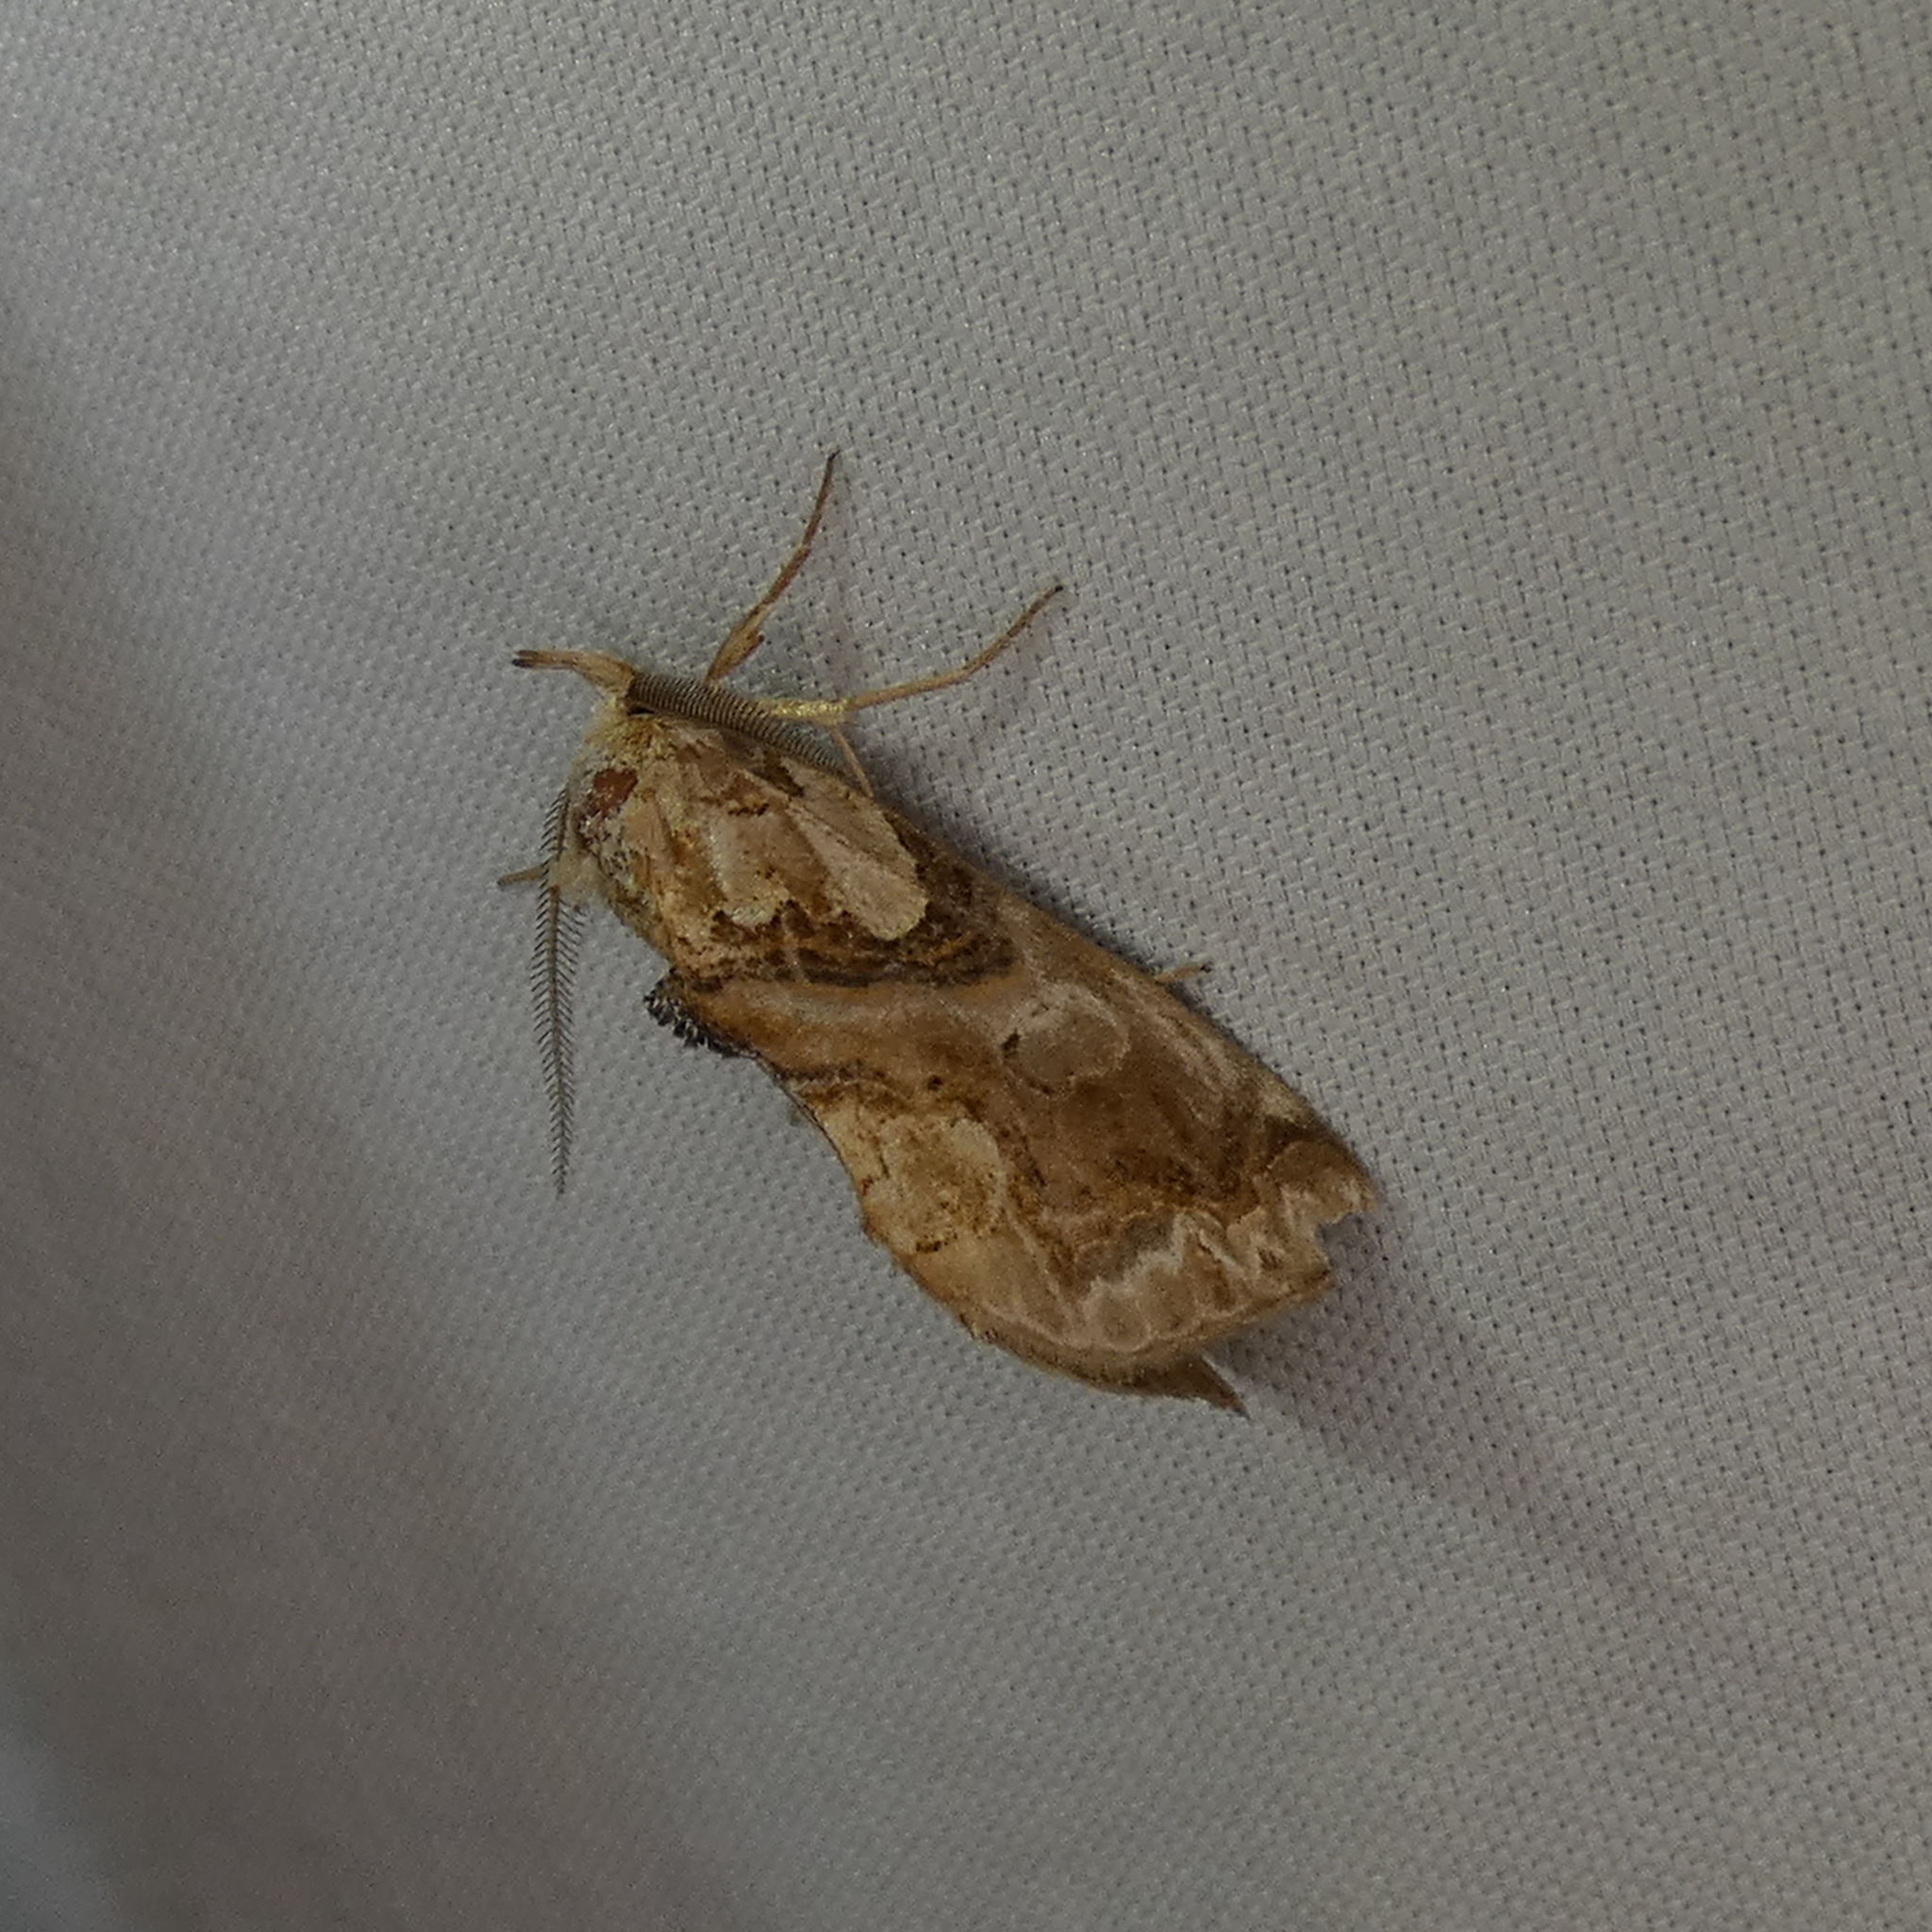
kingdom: Animalia
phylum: Arthropoda
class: Insecta
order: Lepidoptera
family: Erebidae
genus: Plusiodonta
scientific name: Plusiodonta compressipalpis
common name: Moonseed moth
